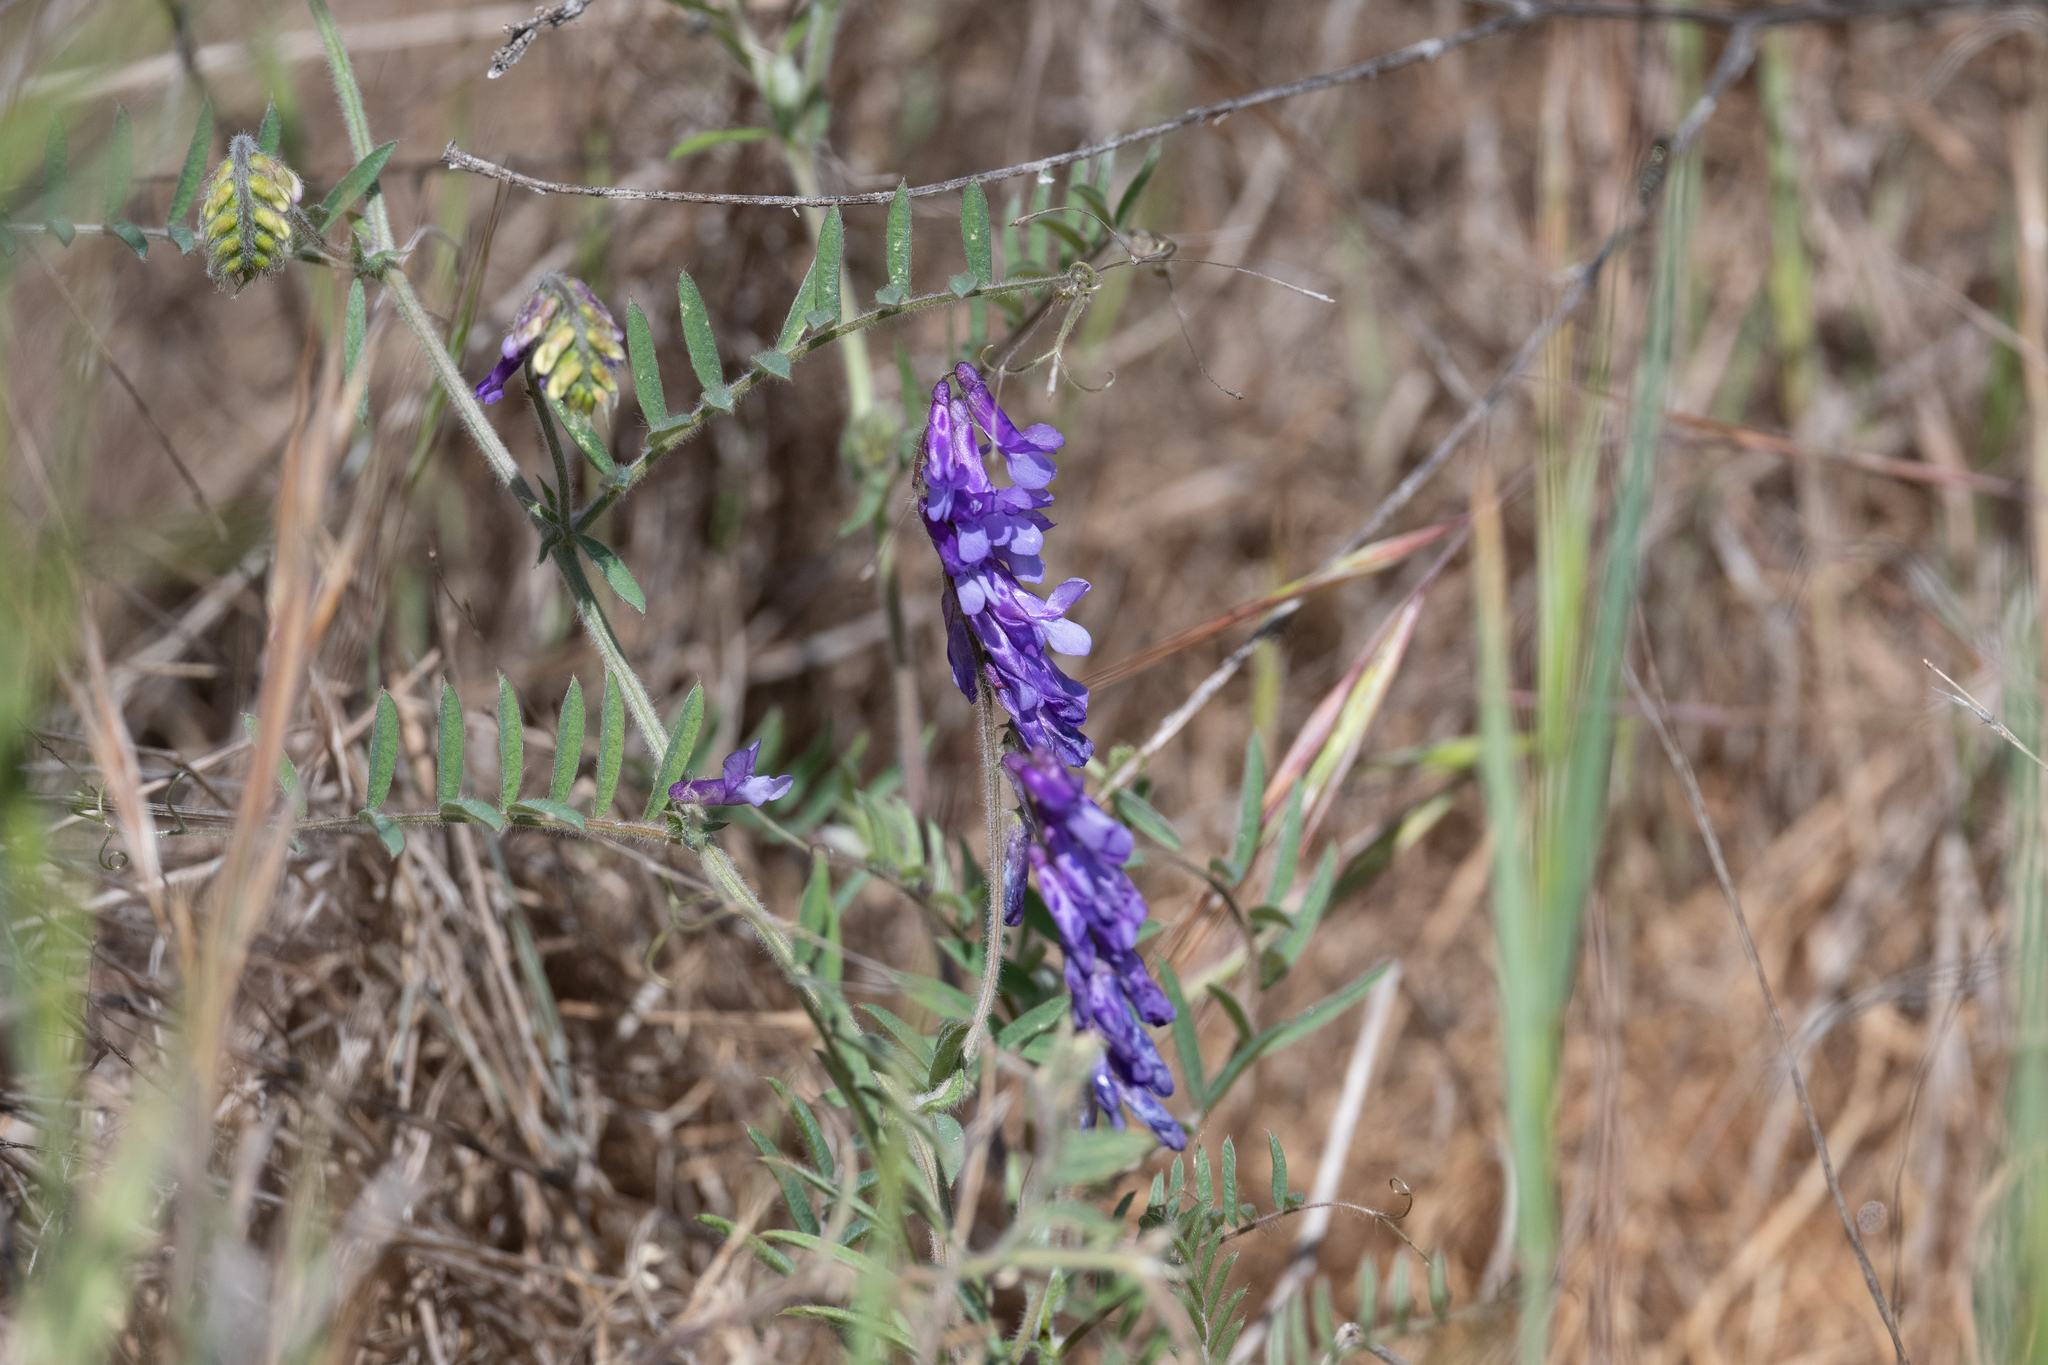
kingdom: Plantae
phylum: Tracheophyta
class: Magnoliopsida
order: Fabales
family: Fabaceae
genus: Vicia
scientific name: Vicia villosa
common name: Fodder vetch
